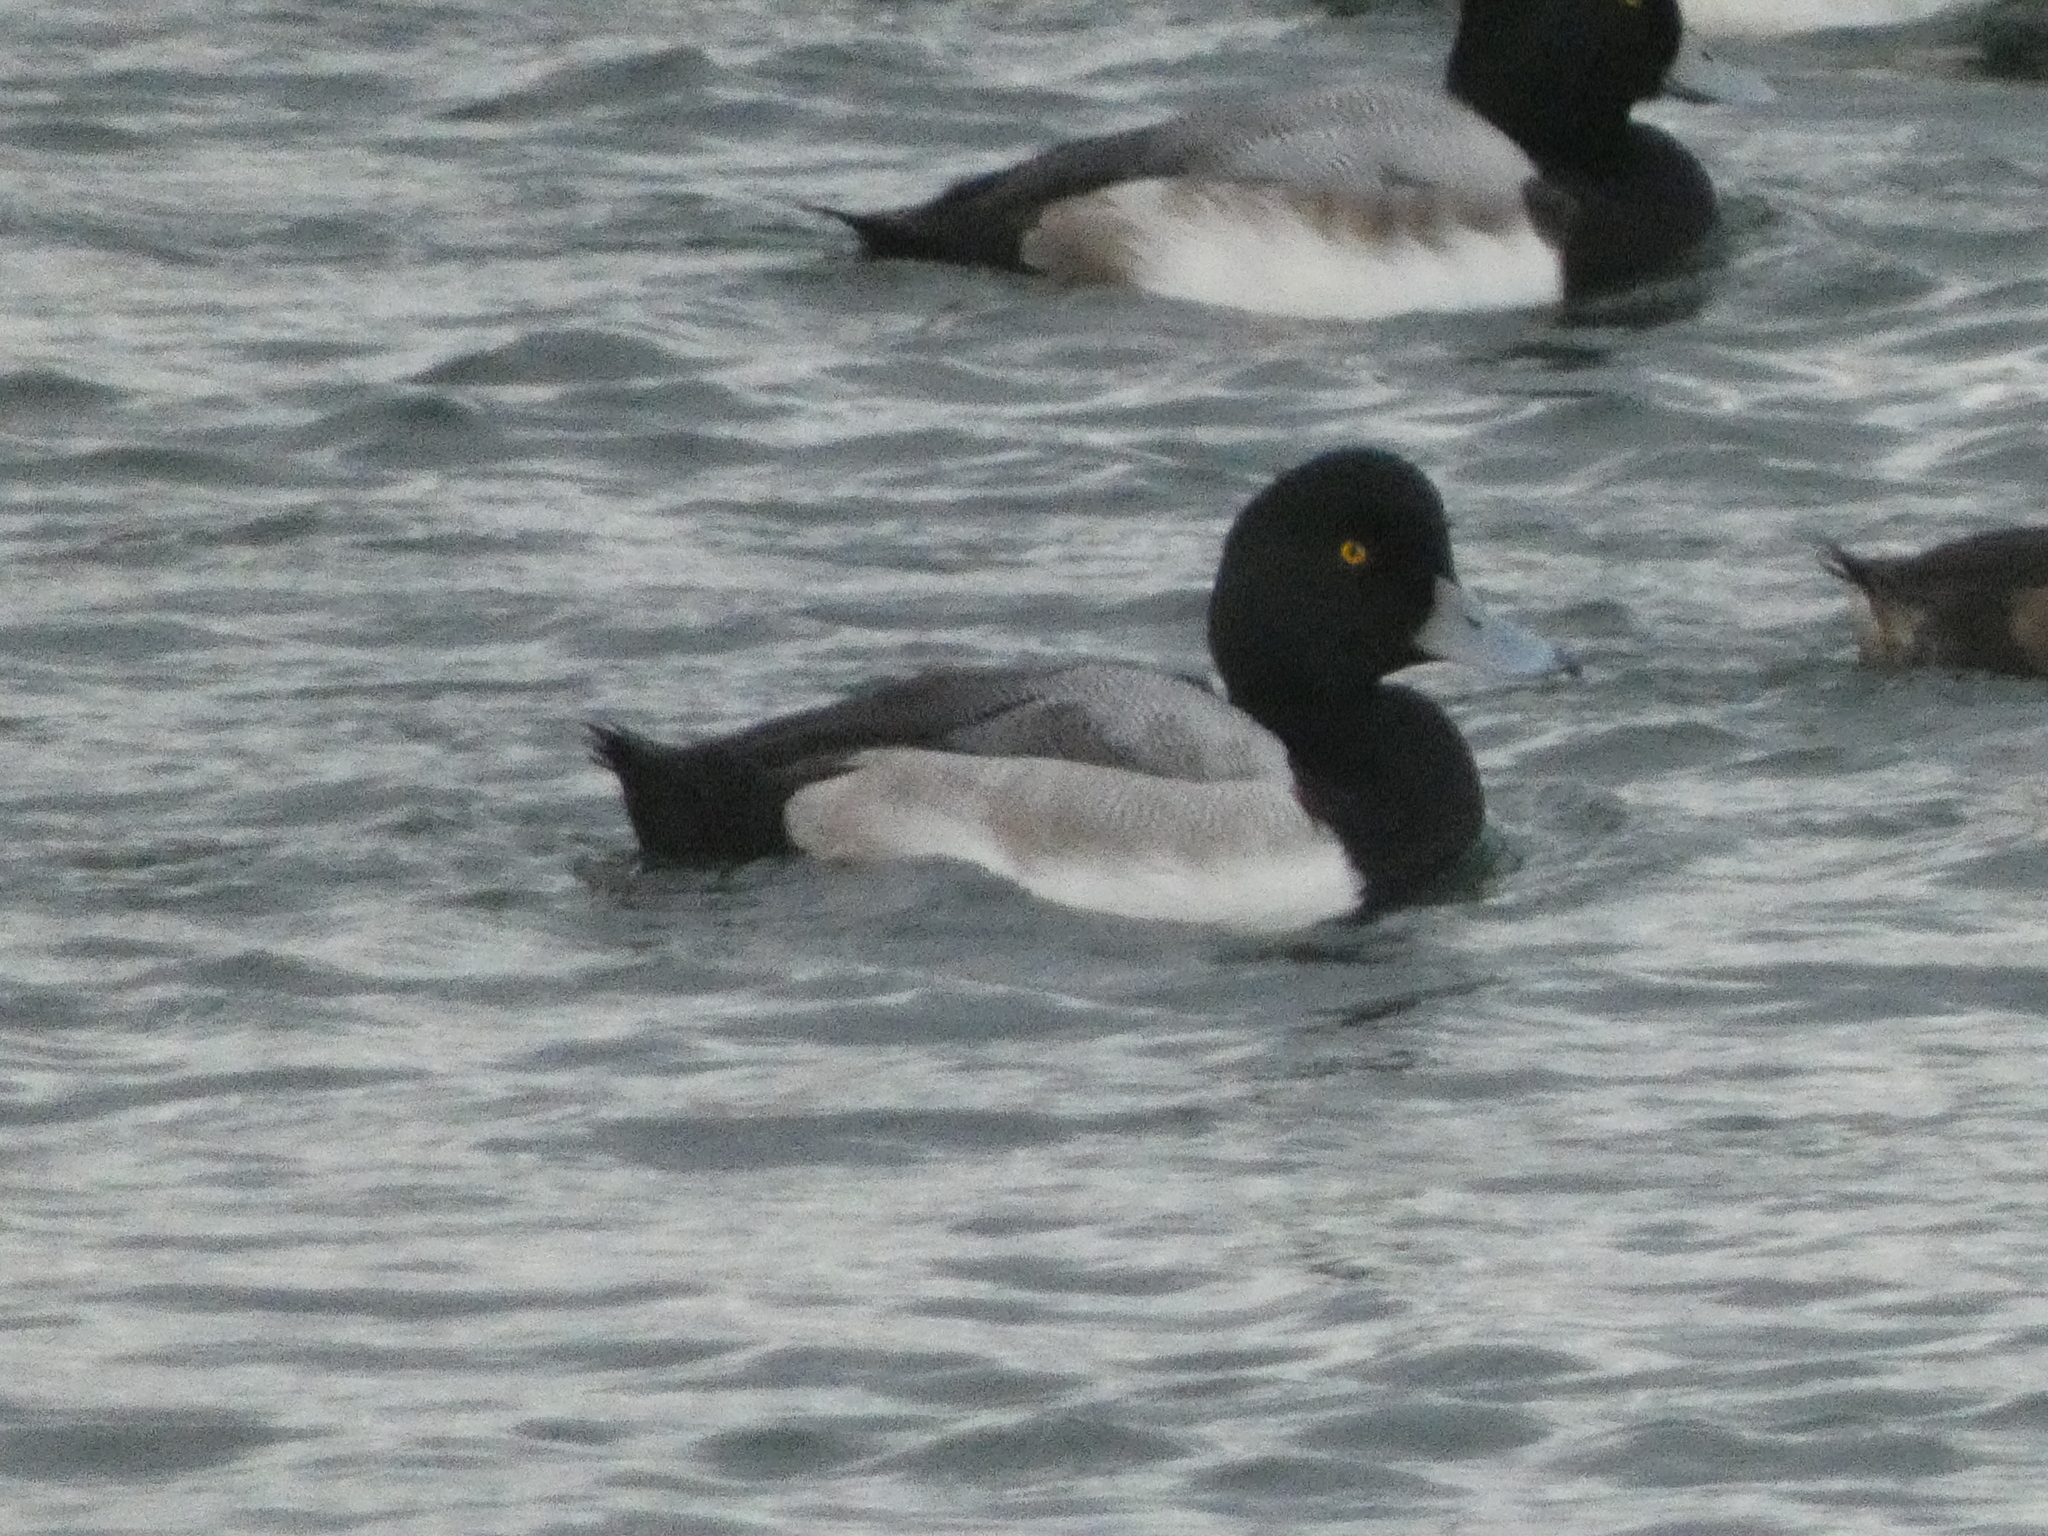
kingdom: Animalia
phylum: Chordata
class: Aves
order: Anseriformes
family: Anatidae
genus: Aythya
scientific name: Aythya marila
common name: Greater scaup
